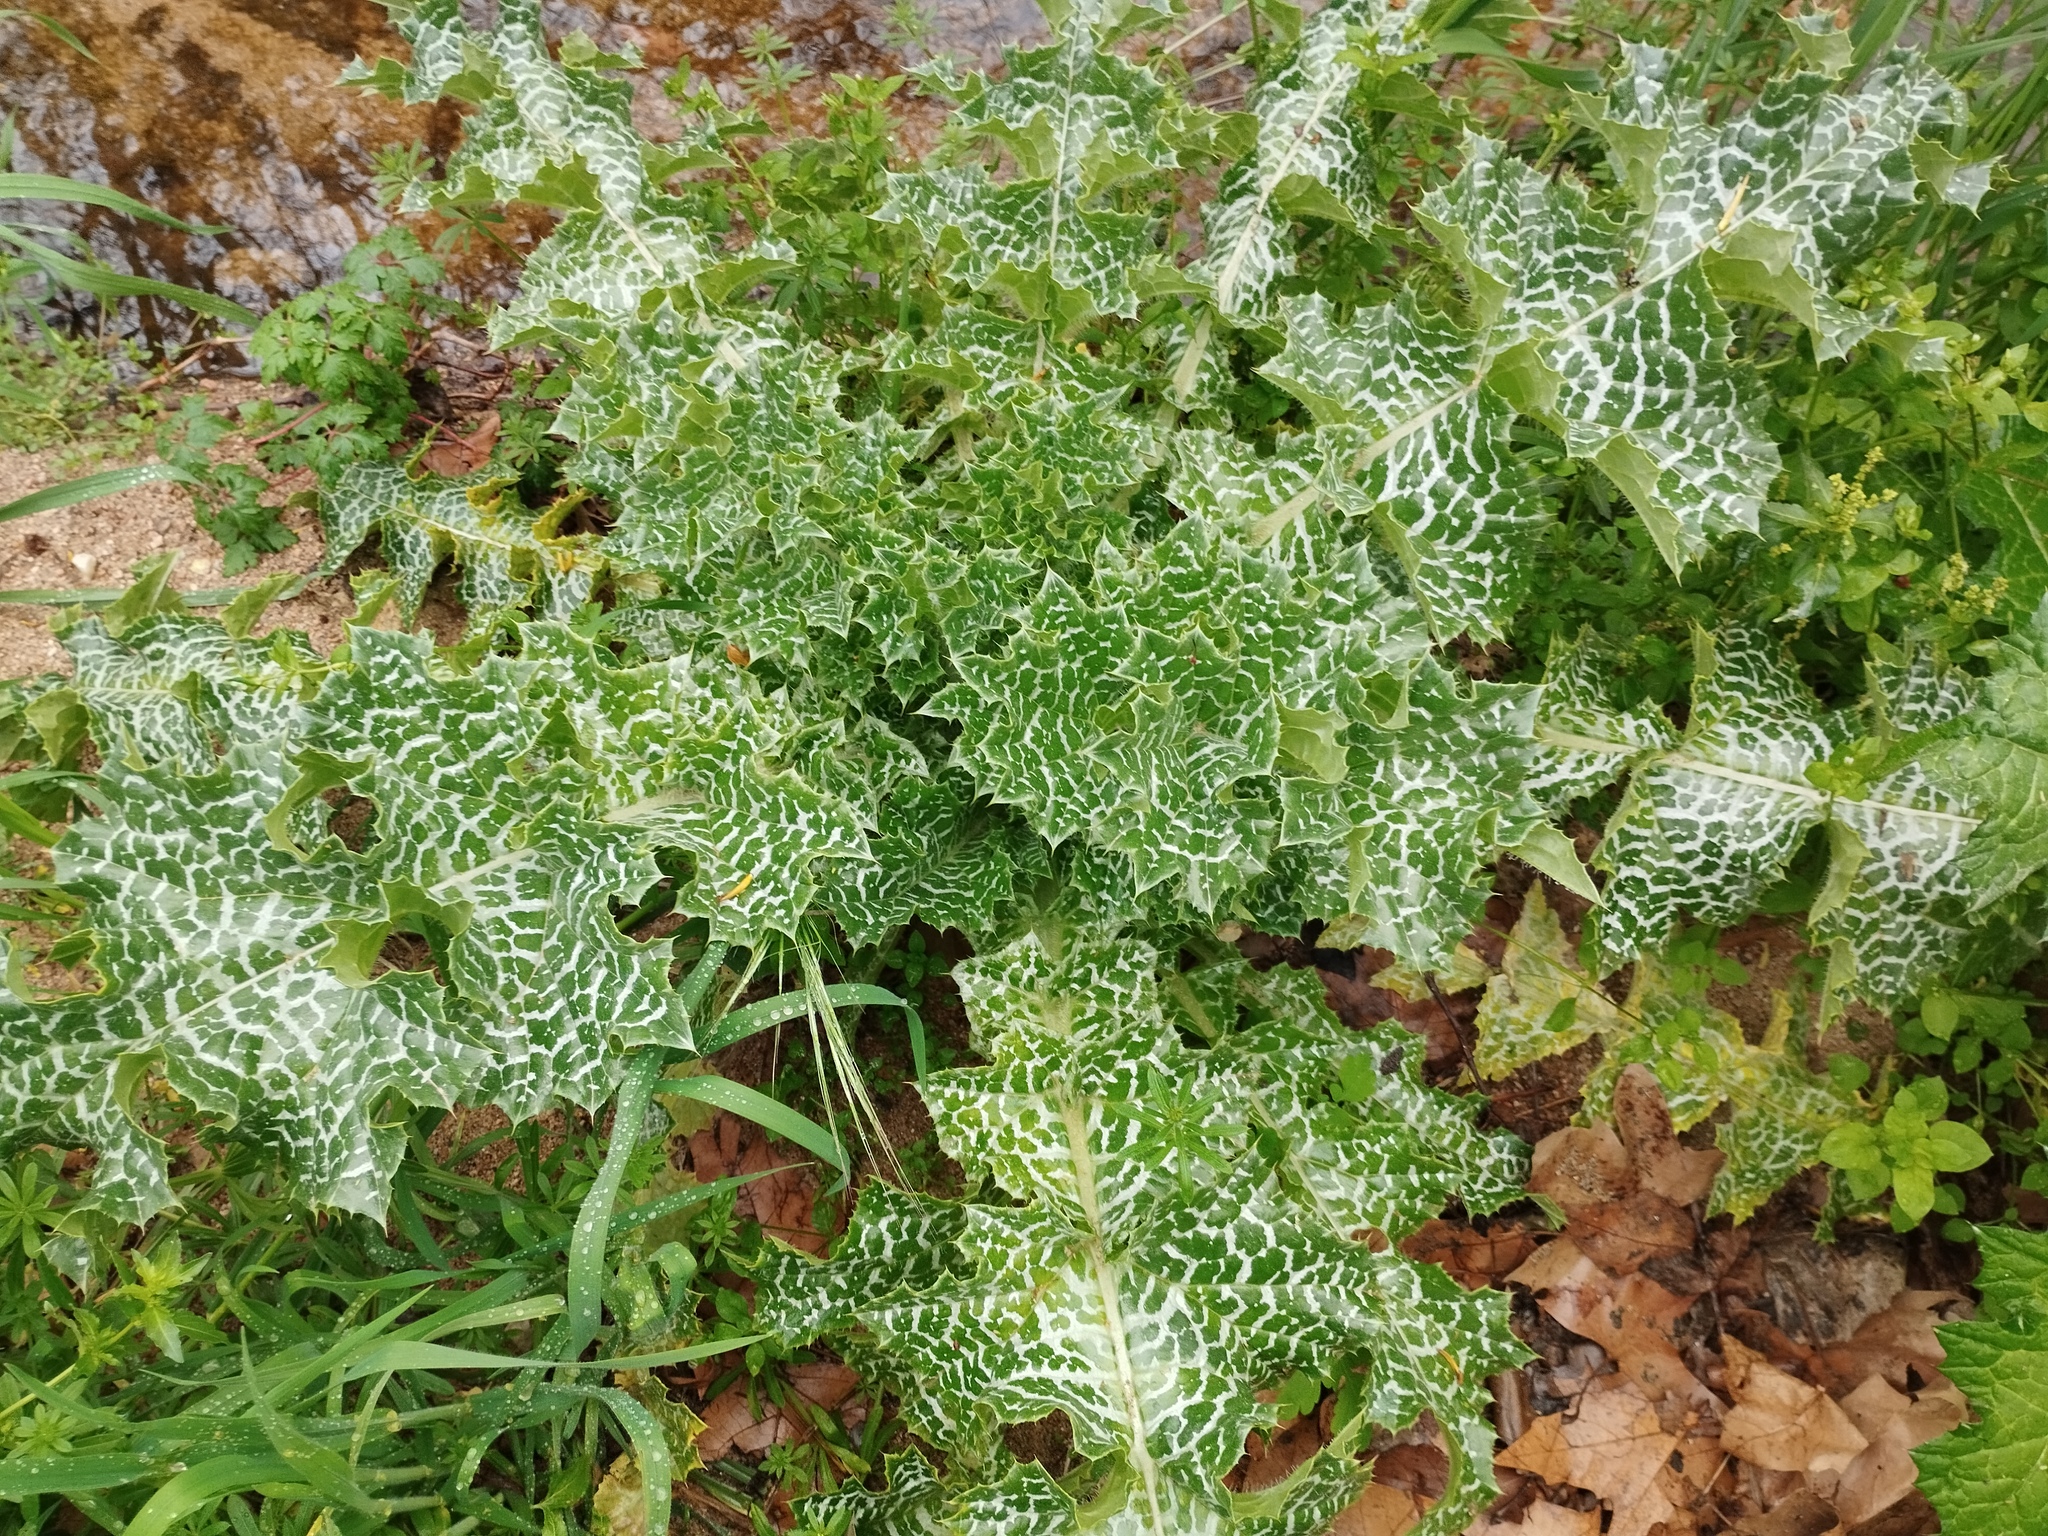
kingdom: Plantae
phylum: Tracheophyta
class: Magnoliopsida
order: Asterales
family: Asteraceae
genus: Silybum
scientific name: Silybum marianum
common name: Milk thistle
